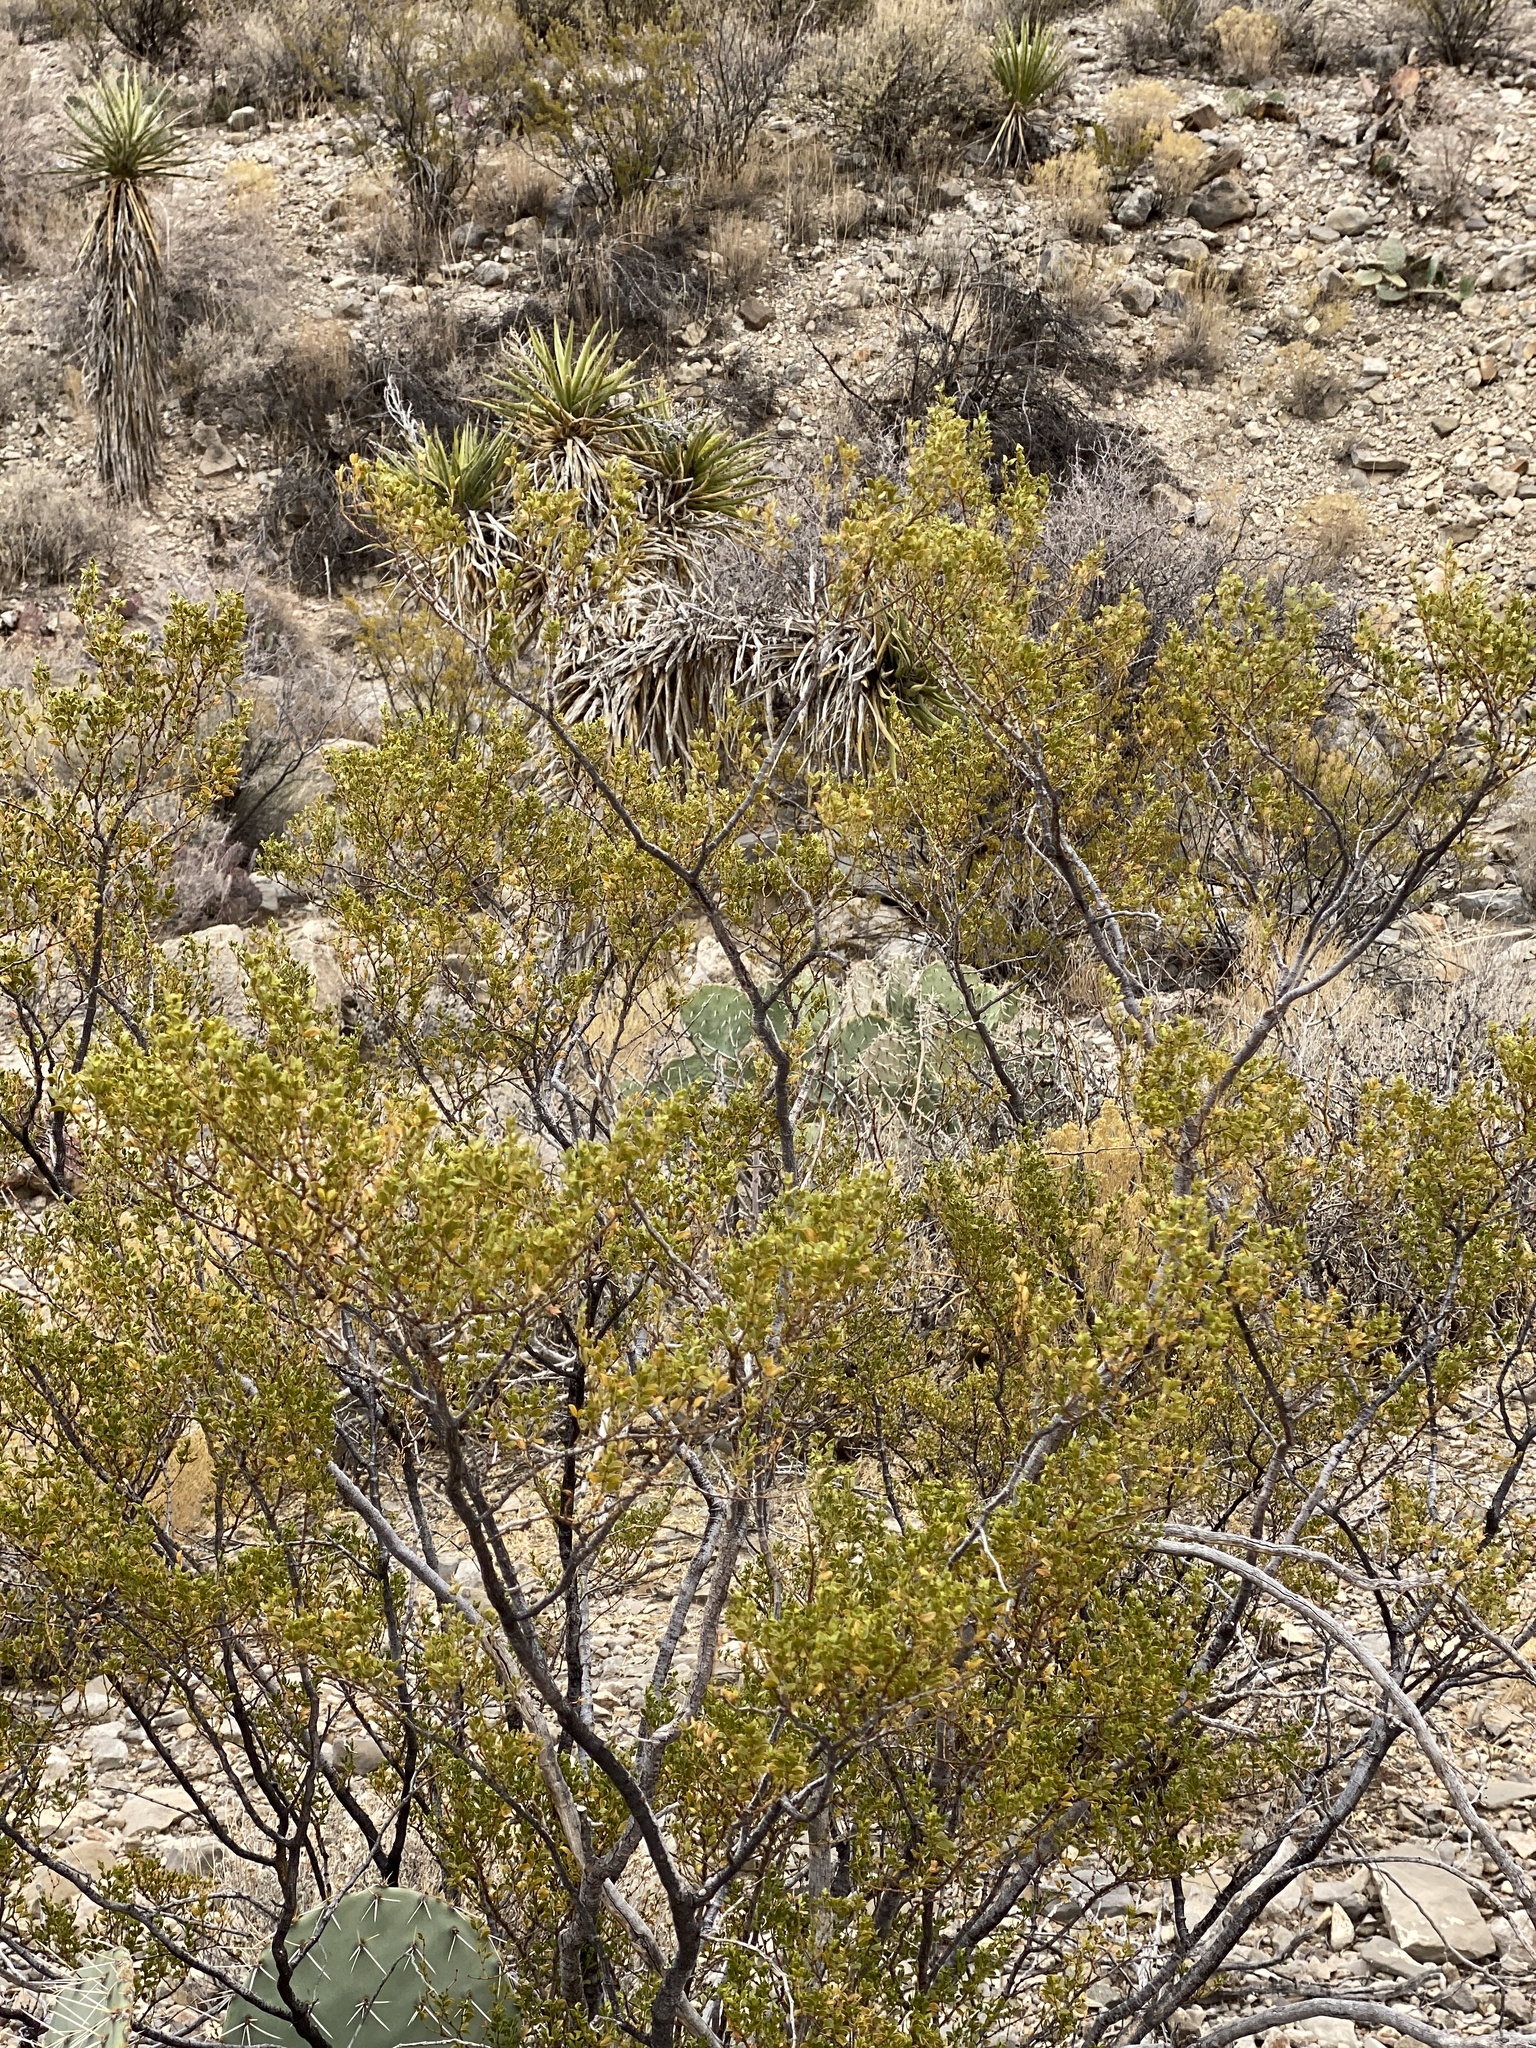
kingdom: Plantae
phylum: Tracheophyta
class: Magnoliopsida
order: Zygophyllales
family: Zygophyllaceae
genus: Larrea
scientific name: Larrea tridentata
